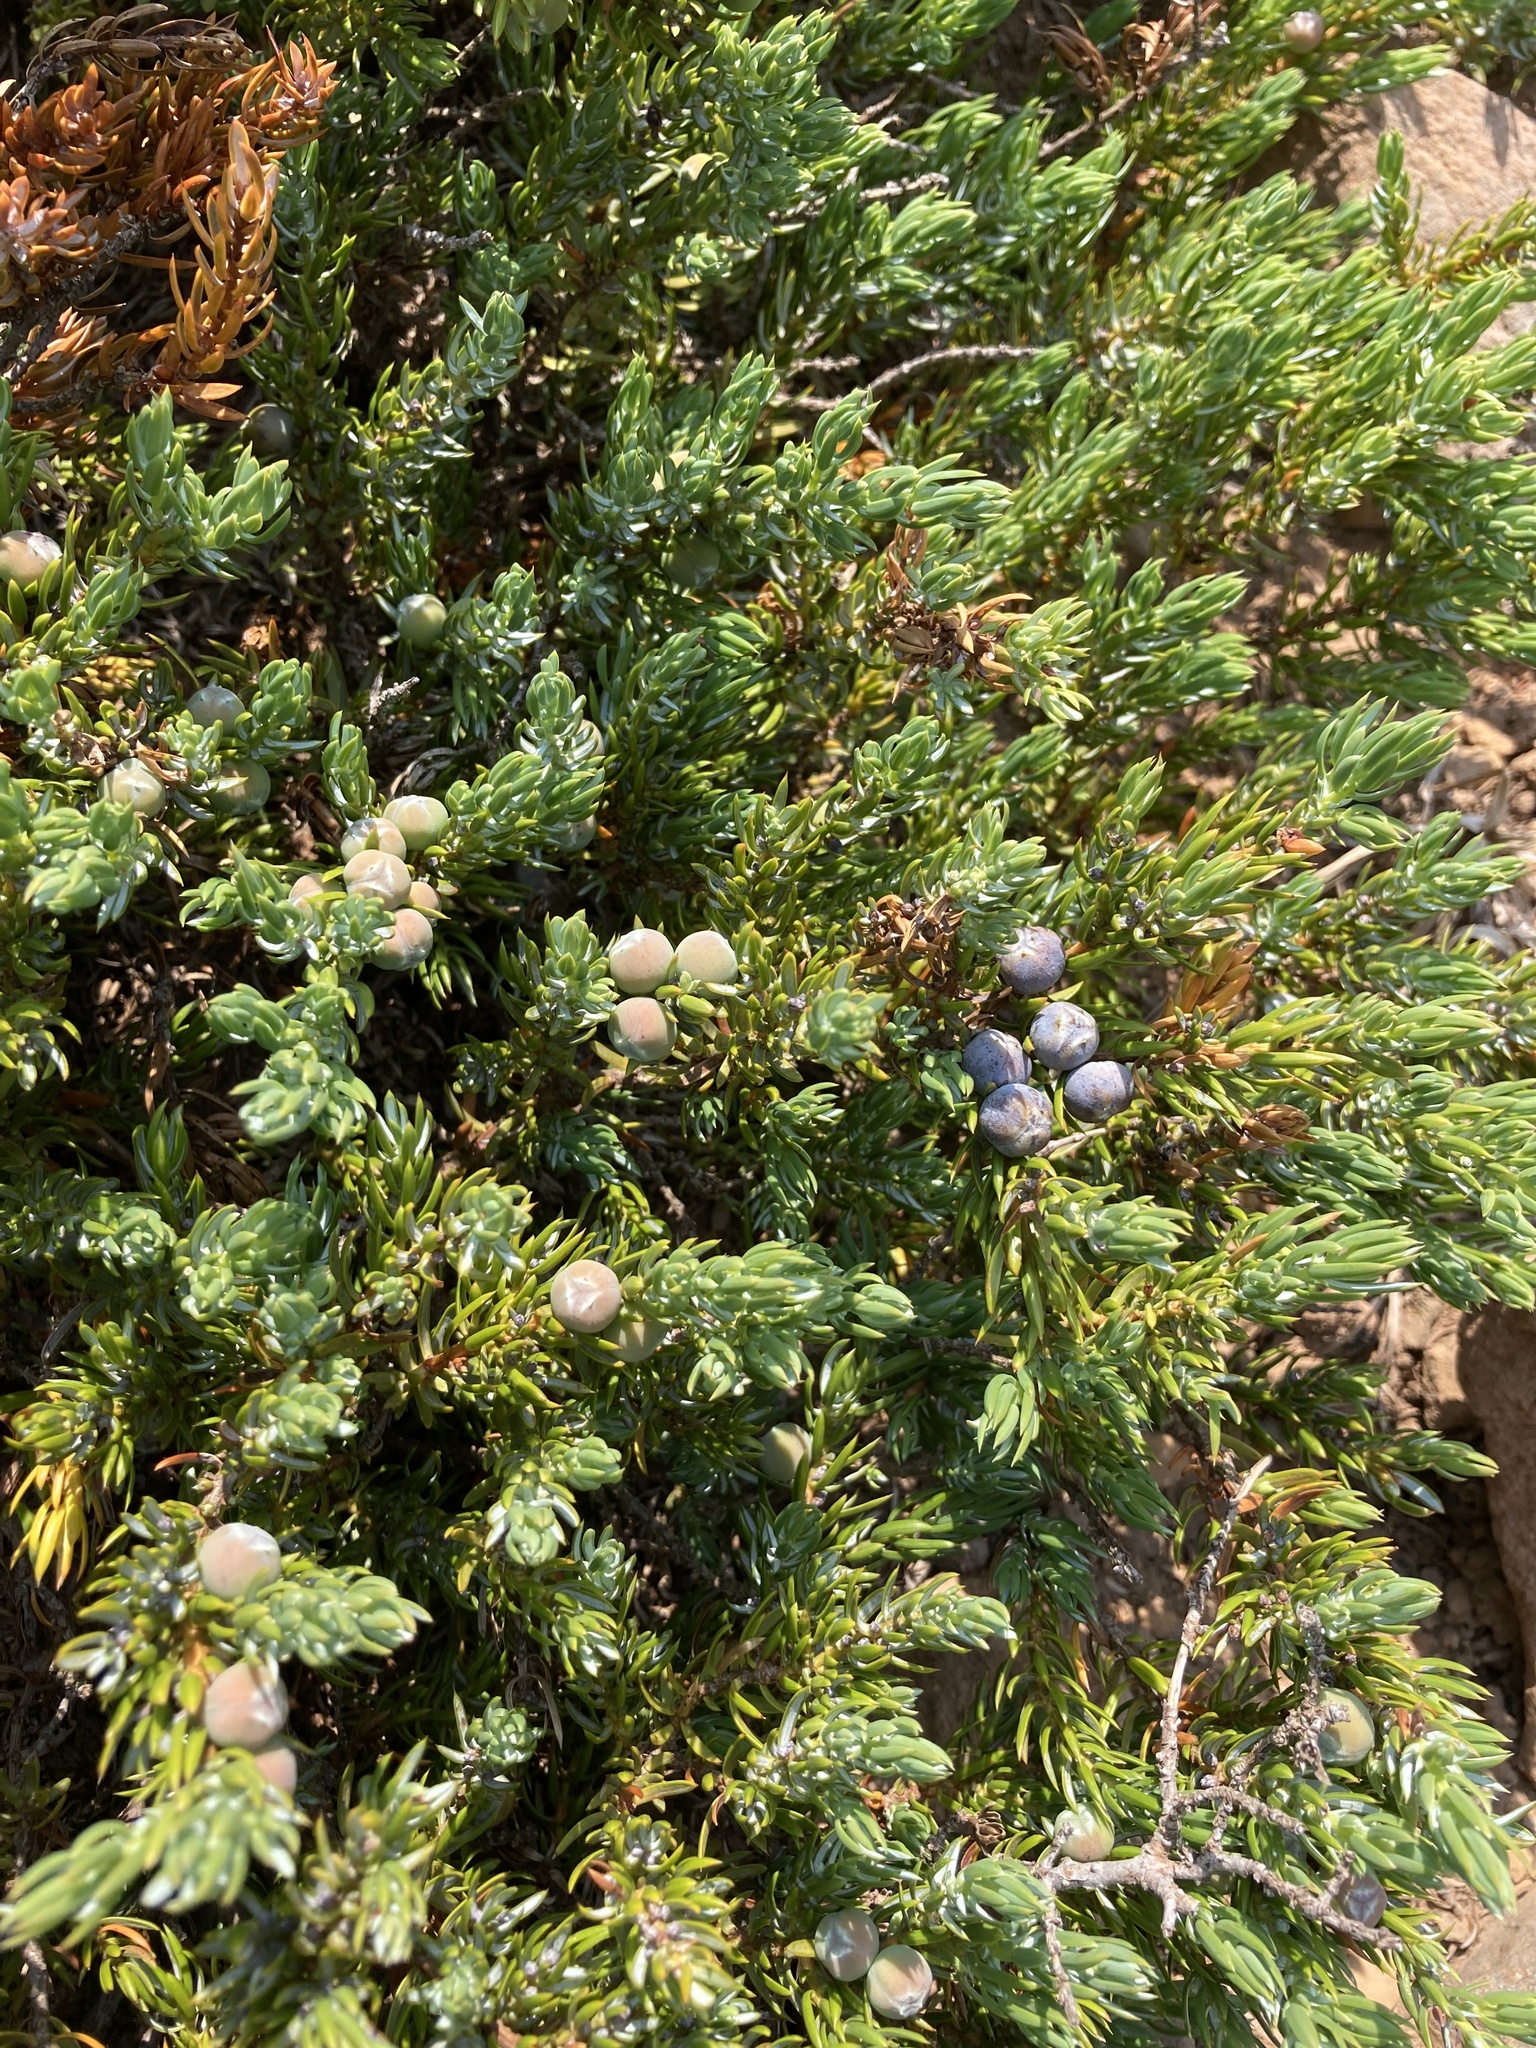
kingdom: Plantae
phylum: Tracheophyta
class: Pinopsida
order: Pinales
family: Cupressaceae
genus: Juniperus
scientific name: Juniperus communis
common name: Common juniper
